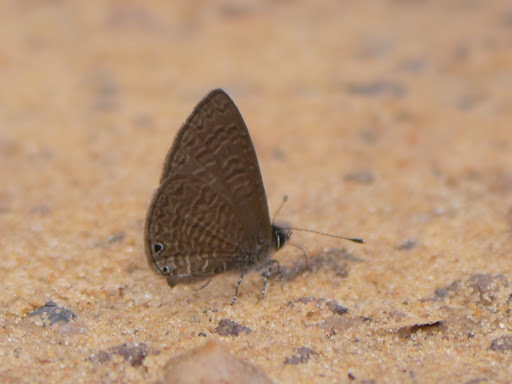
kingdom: Animalia
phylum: Arthropoda
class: Insecta
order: Lepidoptera
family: Lycaenidae
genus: Pseudonacaduba
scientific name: Pseudonacaduba aethiops
